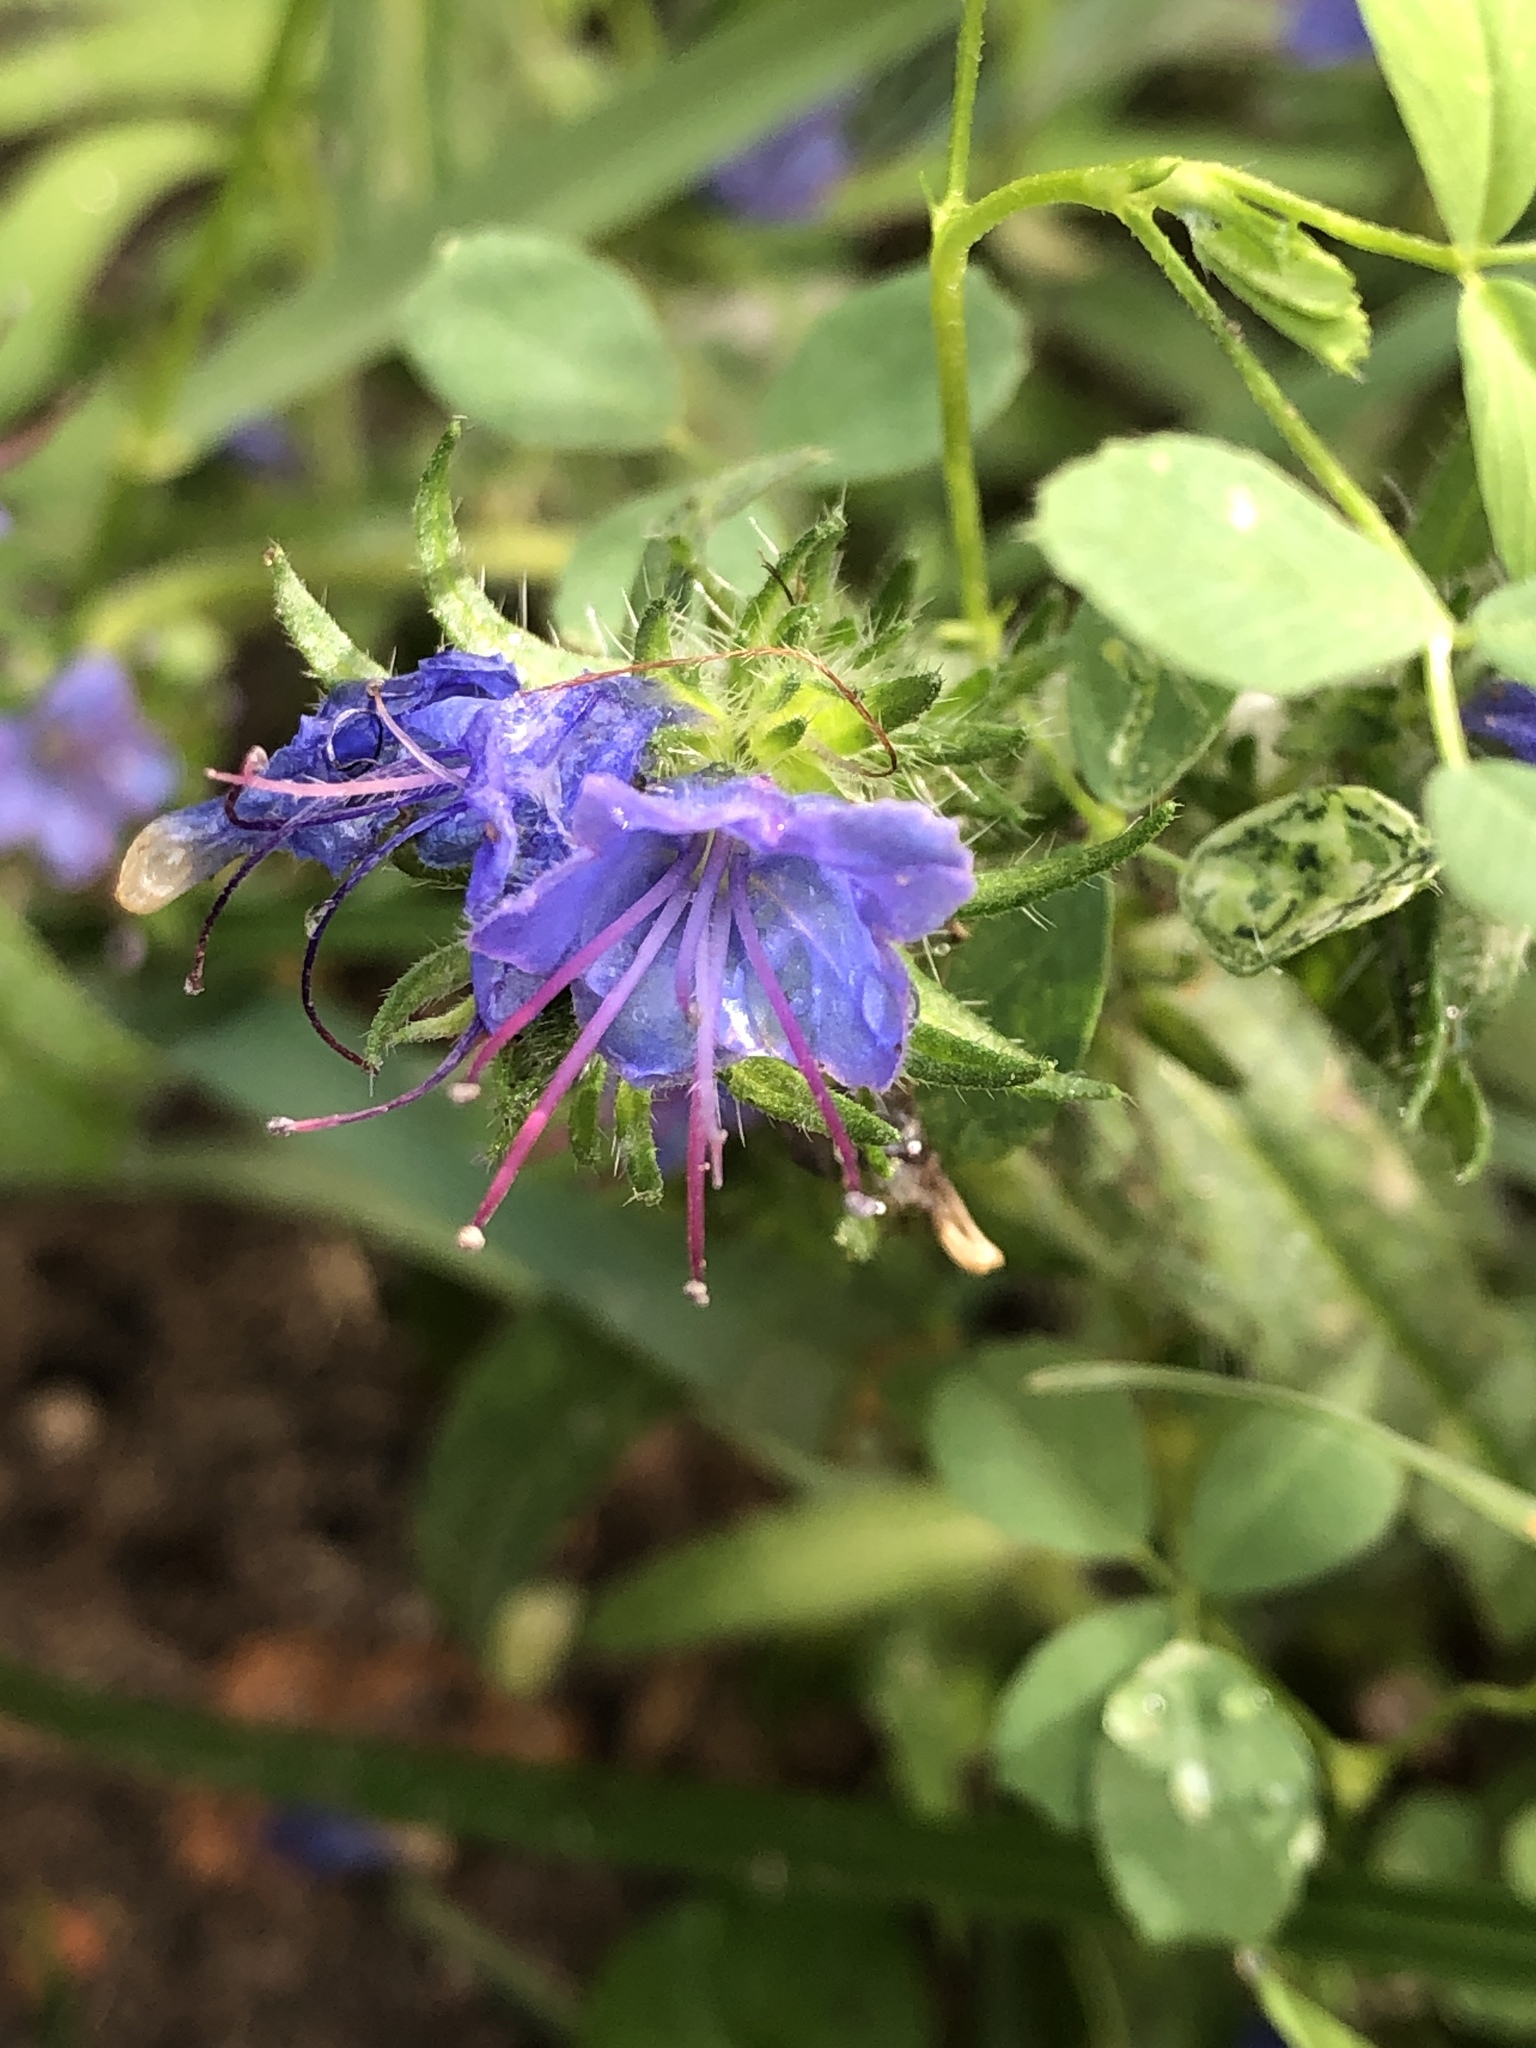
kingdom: Plantae
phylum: Tracheophyta
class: Magnoliopsida
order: Boraginales
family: Boraginaceae
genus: Echium
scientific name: Echium vulgare
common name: Common viper's bugloss
